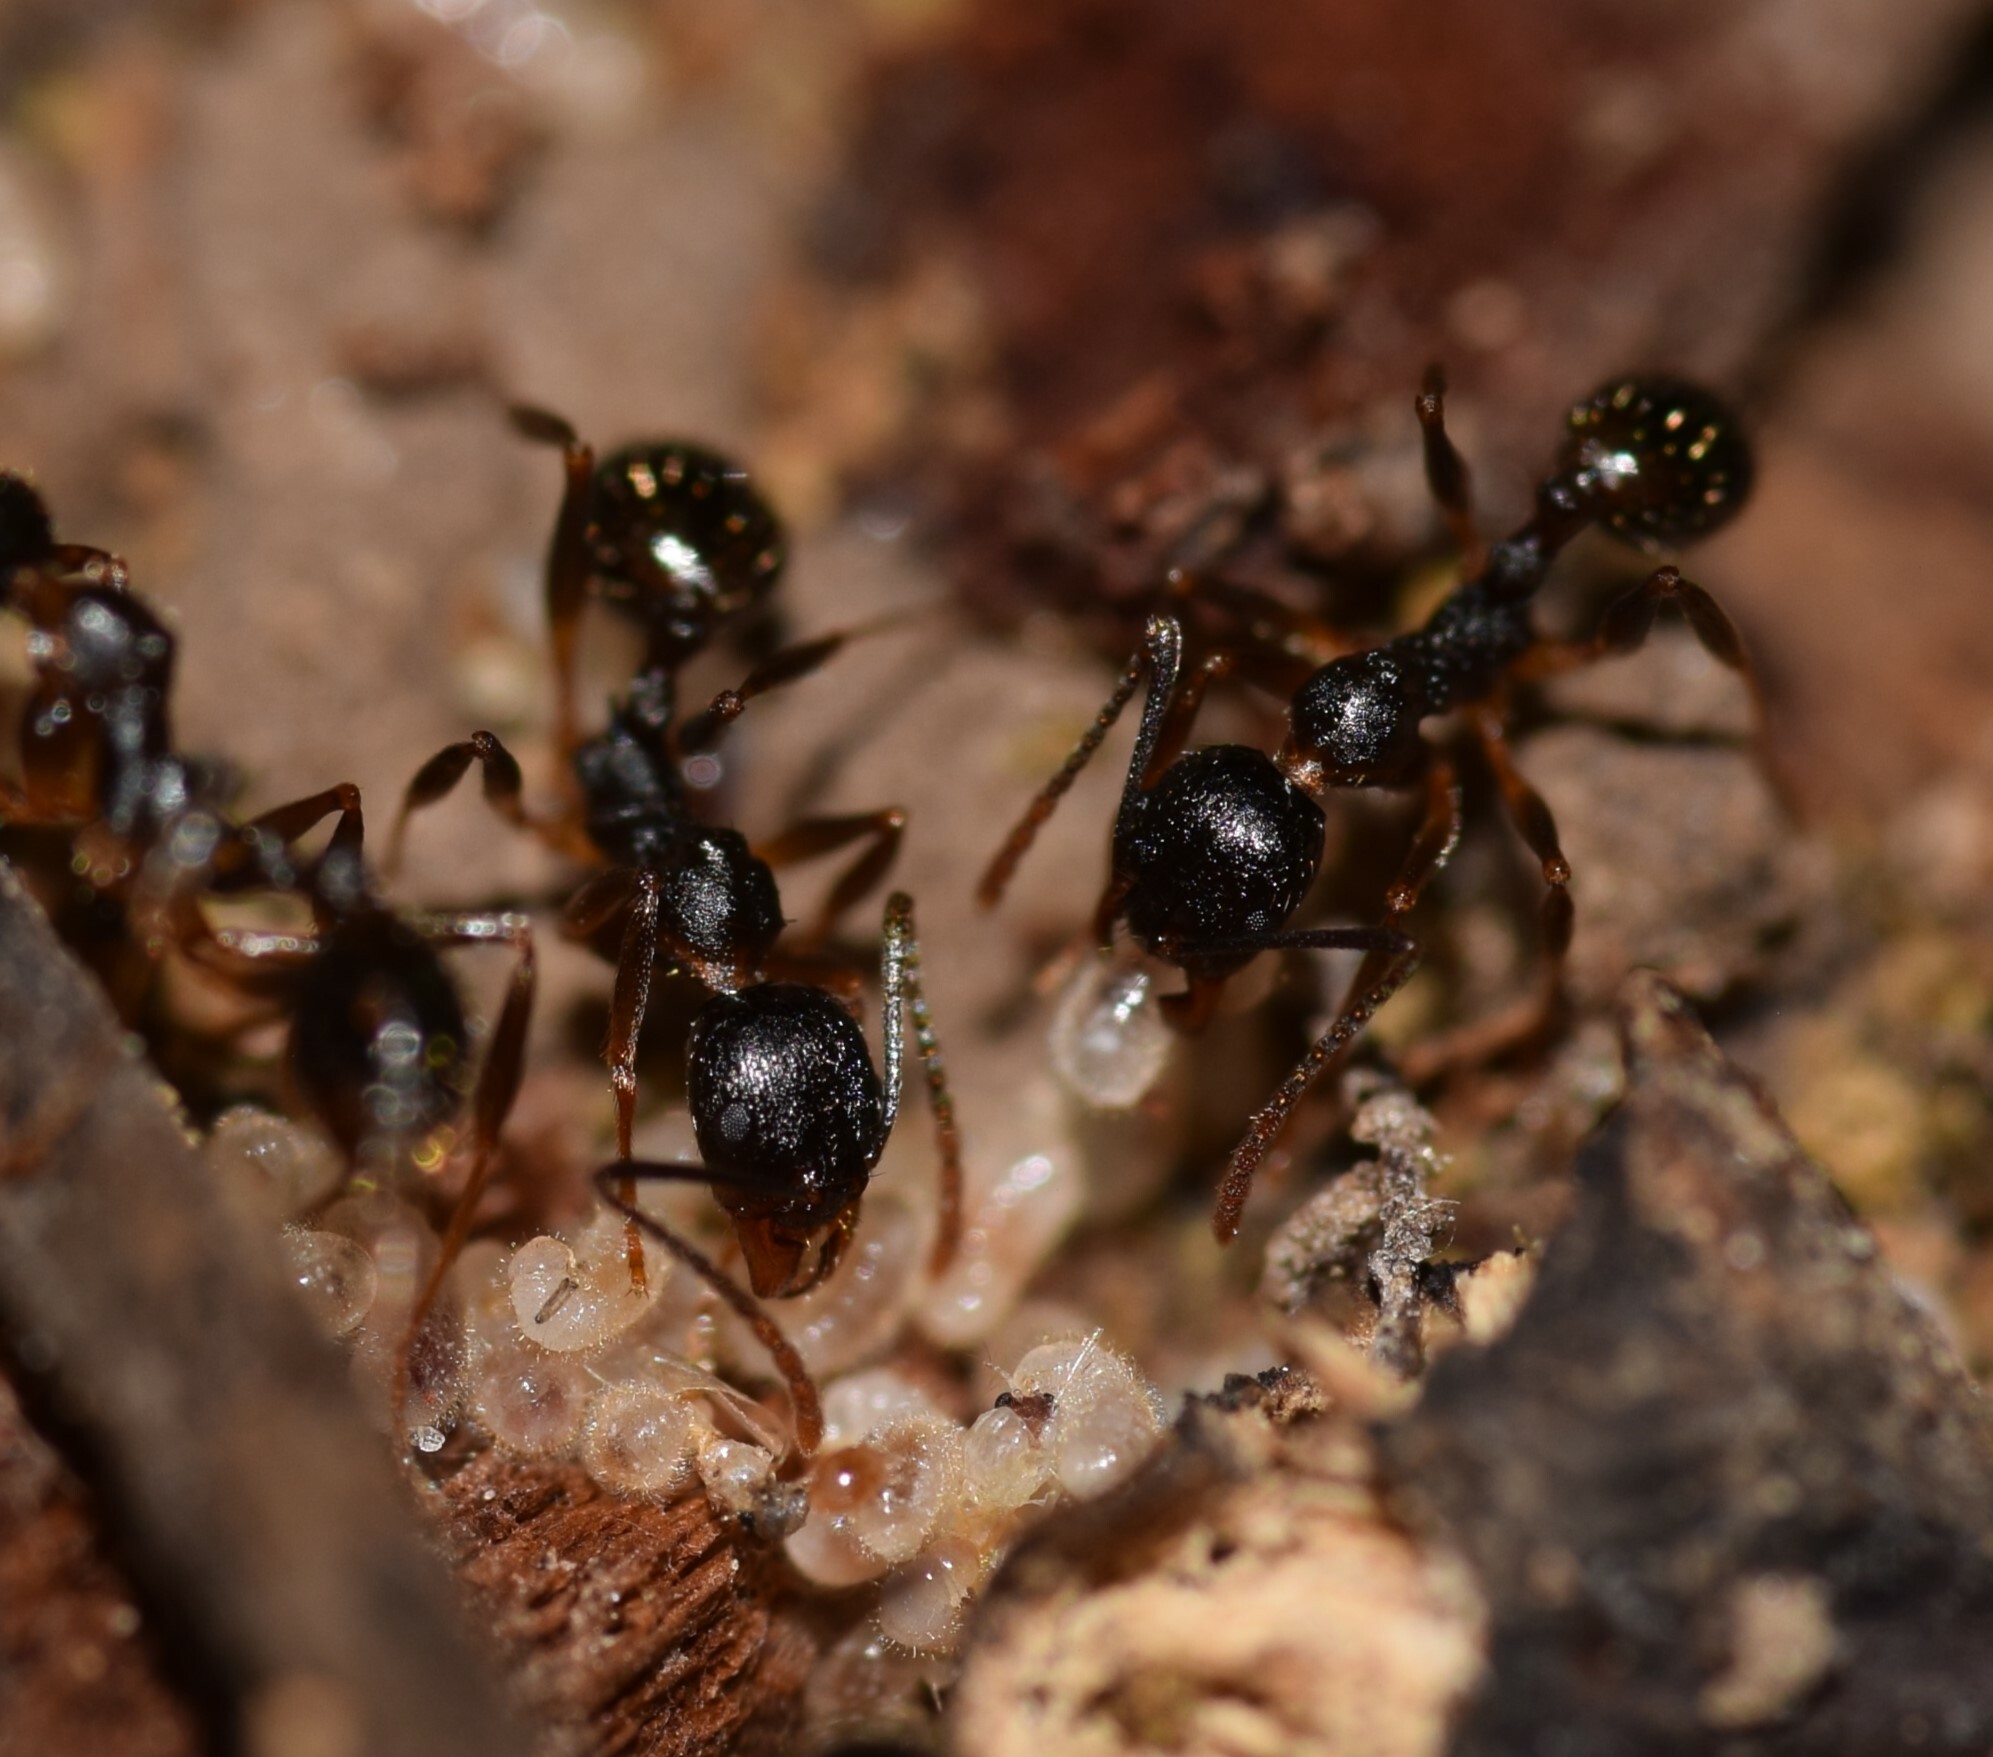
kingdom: Animalia
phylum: Arthropoda
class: Insecta
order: Hymenoptera
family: Formicidae
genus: Aphaenogaster
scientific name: Aphaenogaster picea
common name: Pitch-black collared ant
